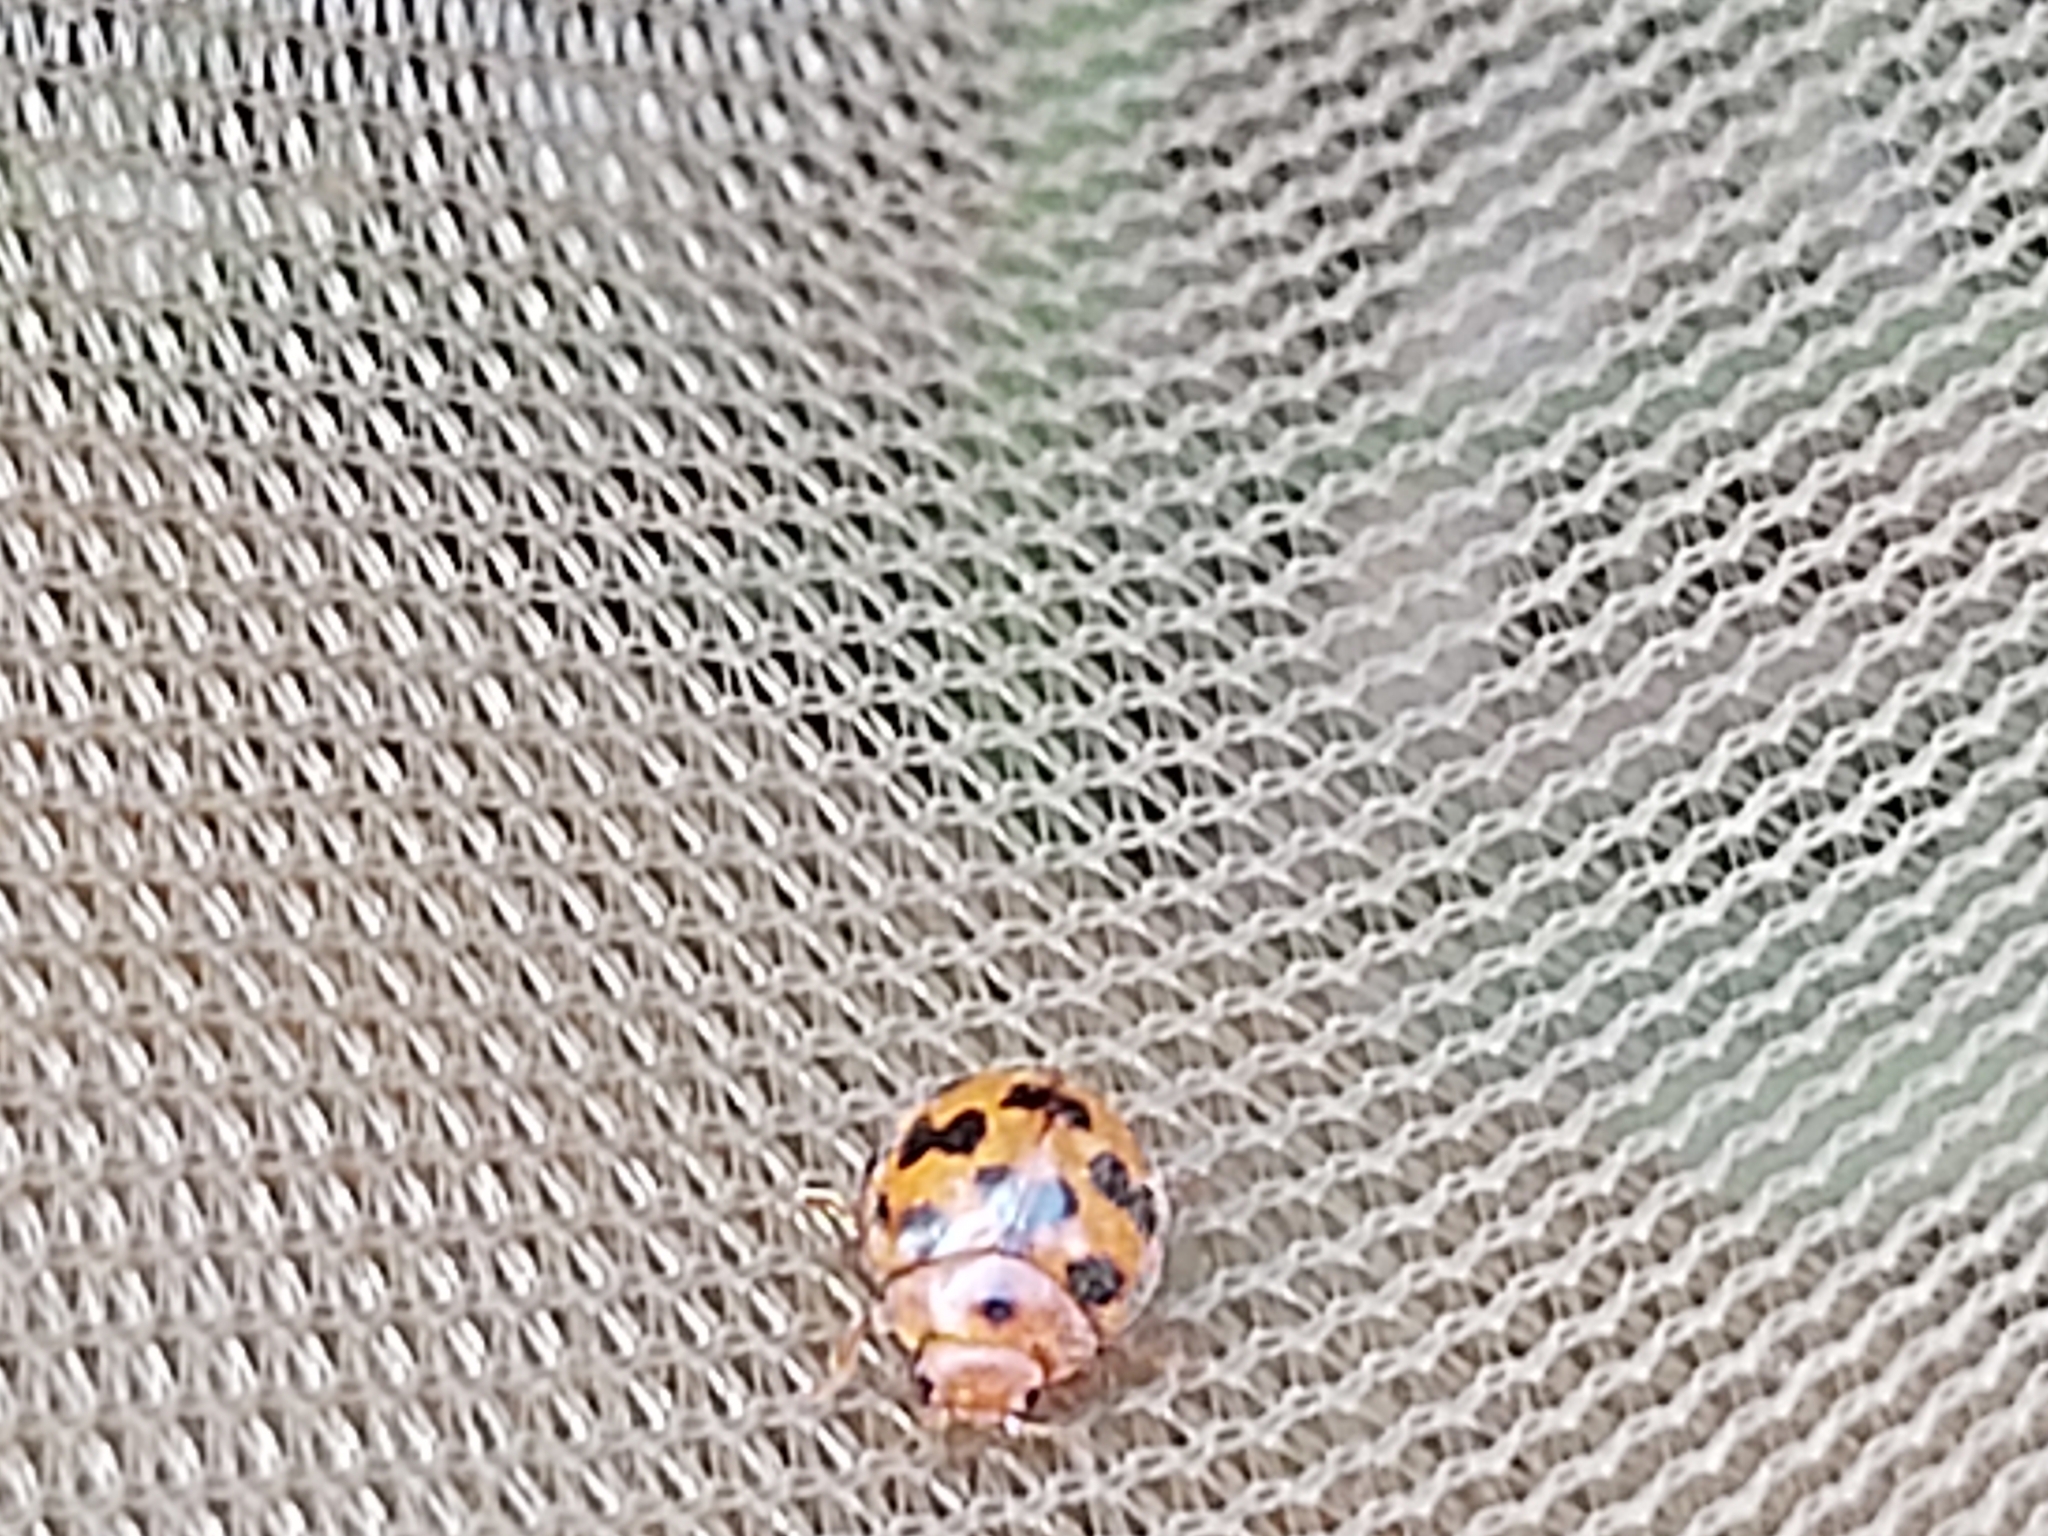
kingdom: Animalia
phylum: Arthropoda
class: Insecta
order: Coleoptera
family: Coccinellidae
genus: Subcoccinella
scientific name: Subcoccinella vigintiquatuorpunctata
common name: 24-spot ladybird
